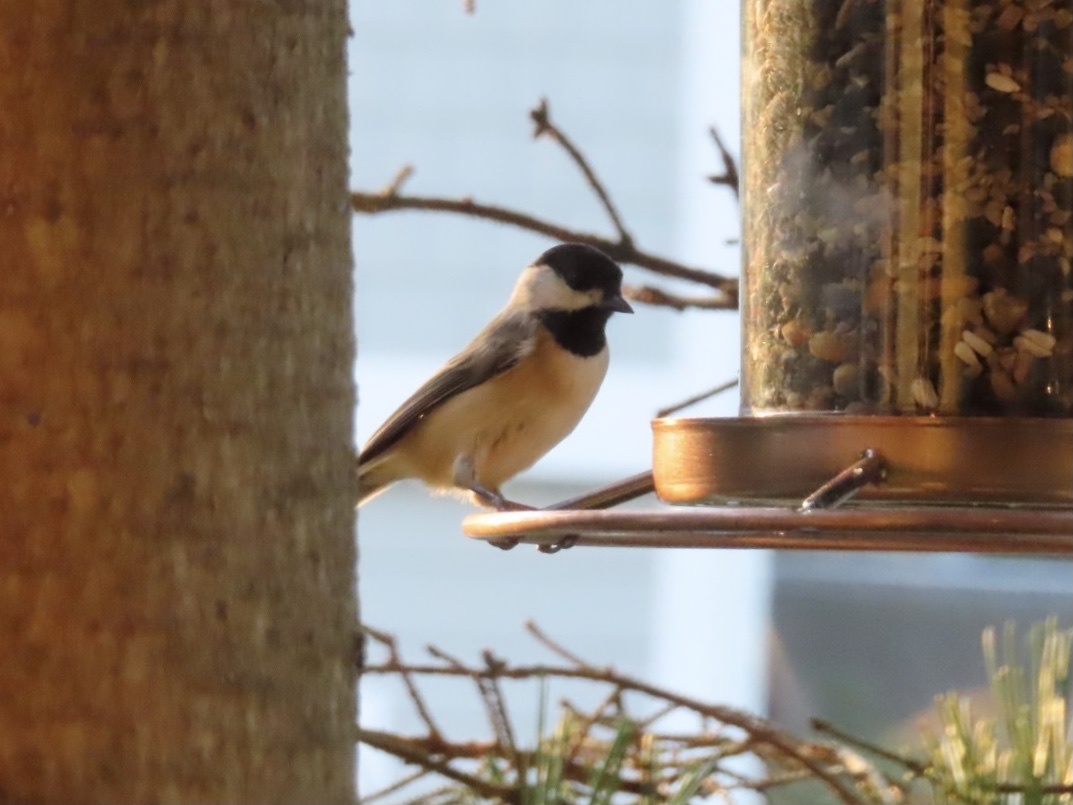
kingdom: Animalia
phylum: Chordata
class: Aves
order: Passeriformes
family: Paridae
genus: Poecile
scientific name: Poecile carolinensis
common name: Carolina chickadee
